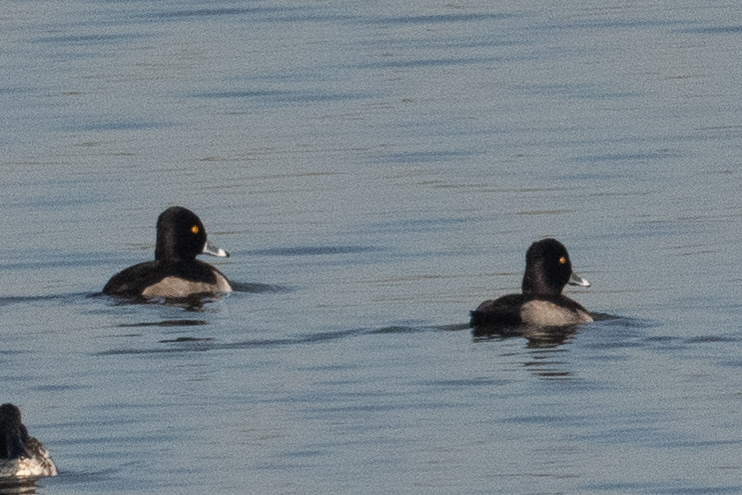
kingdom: Animalia
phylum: Chordata
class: Aves
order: Anseriformes
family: Anatidae
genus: Aythya
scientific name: Aythya collaris
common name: Ring-necked duck
